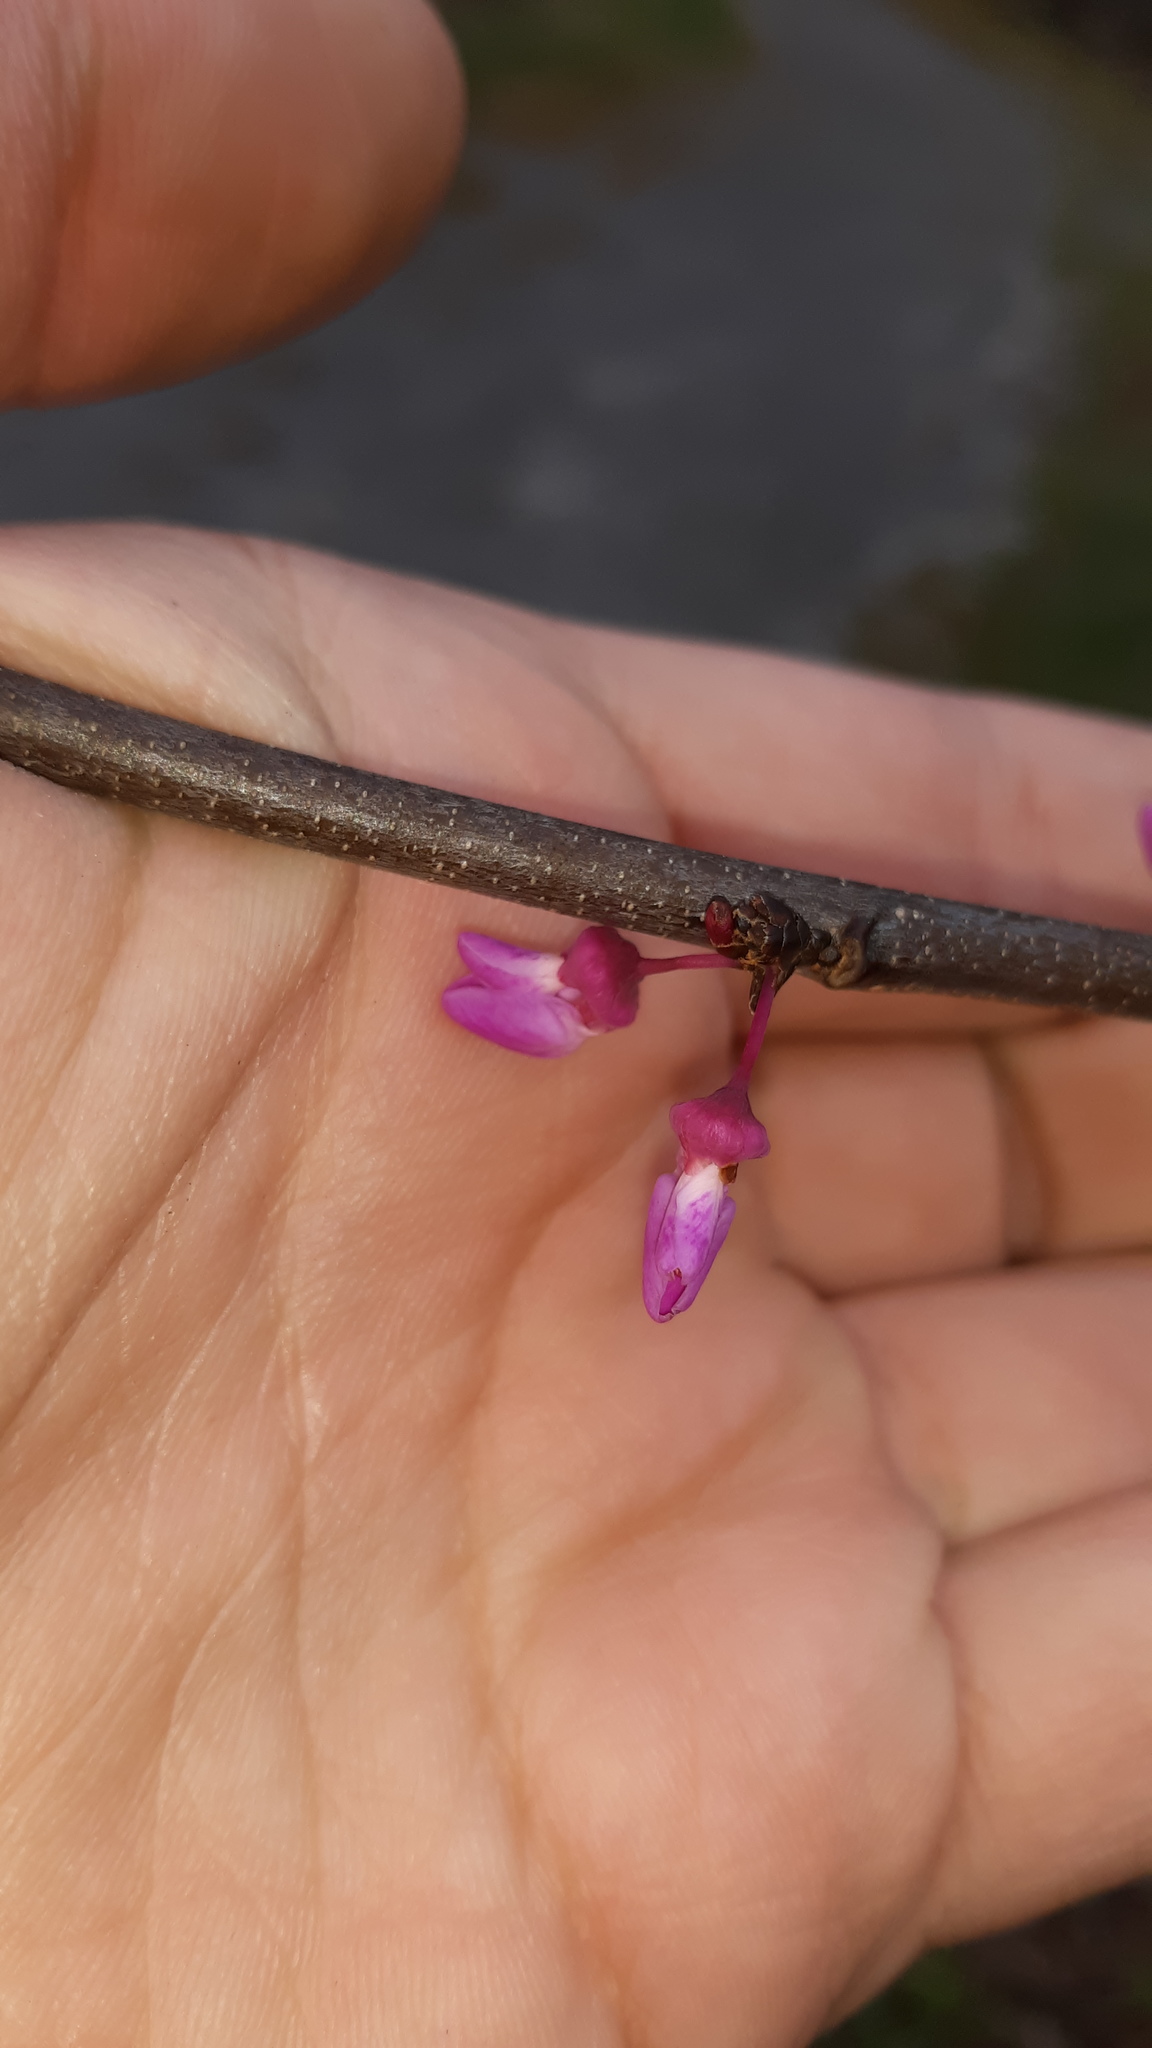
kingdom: Plantae
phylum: Tracheophyta
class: Magnoliopsida
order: Fabales
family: Fabaceae
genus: Cercis
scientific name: Cercis canadensis
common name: Eastern redbud
